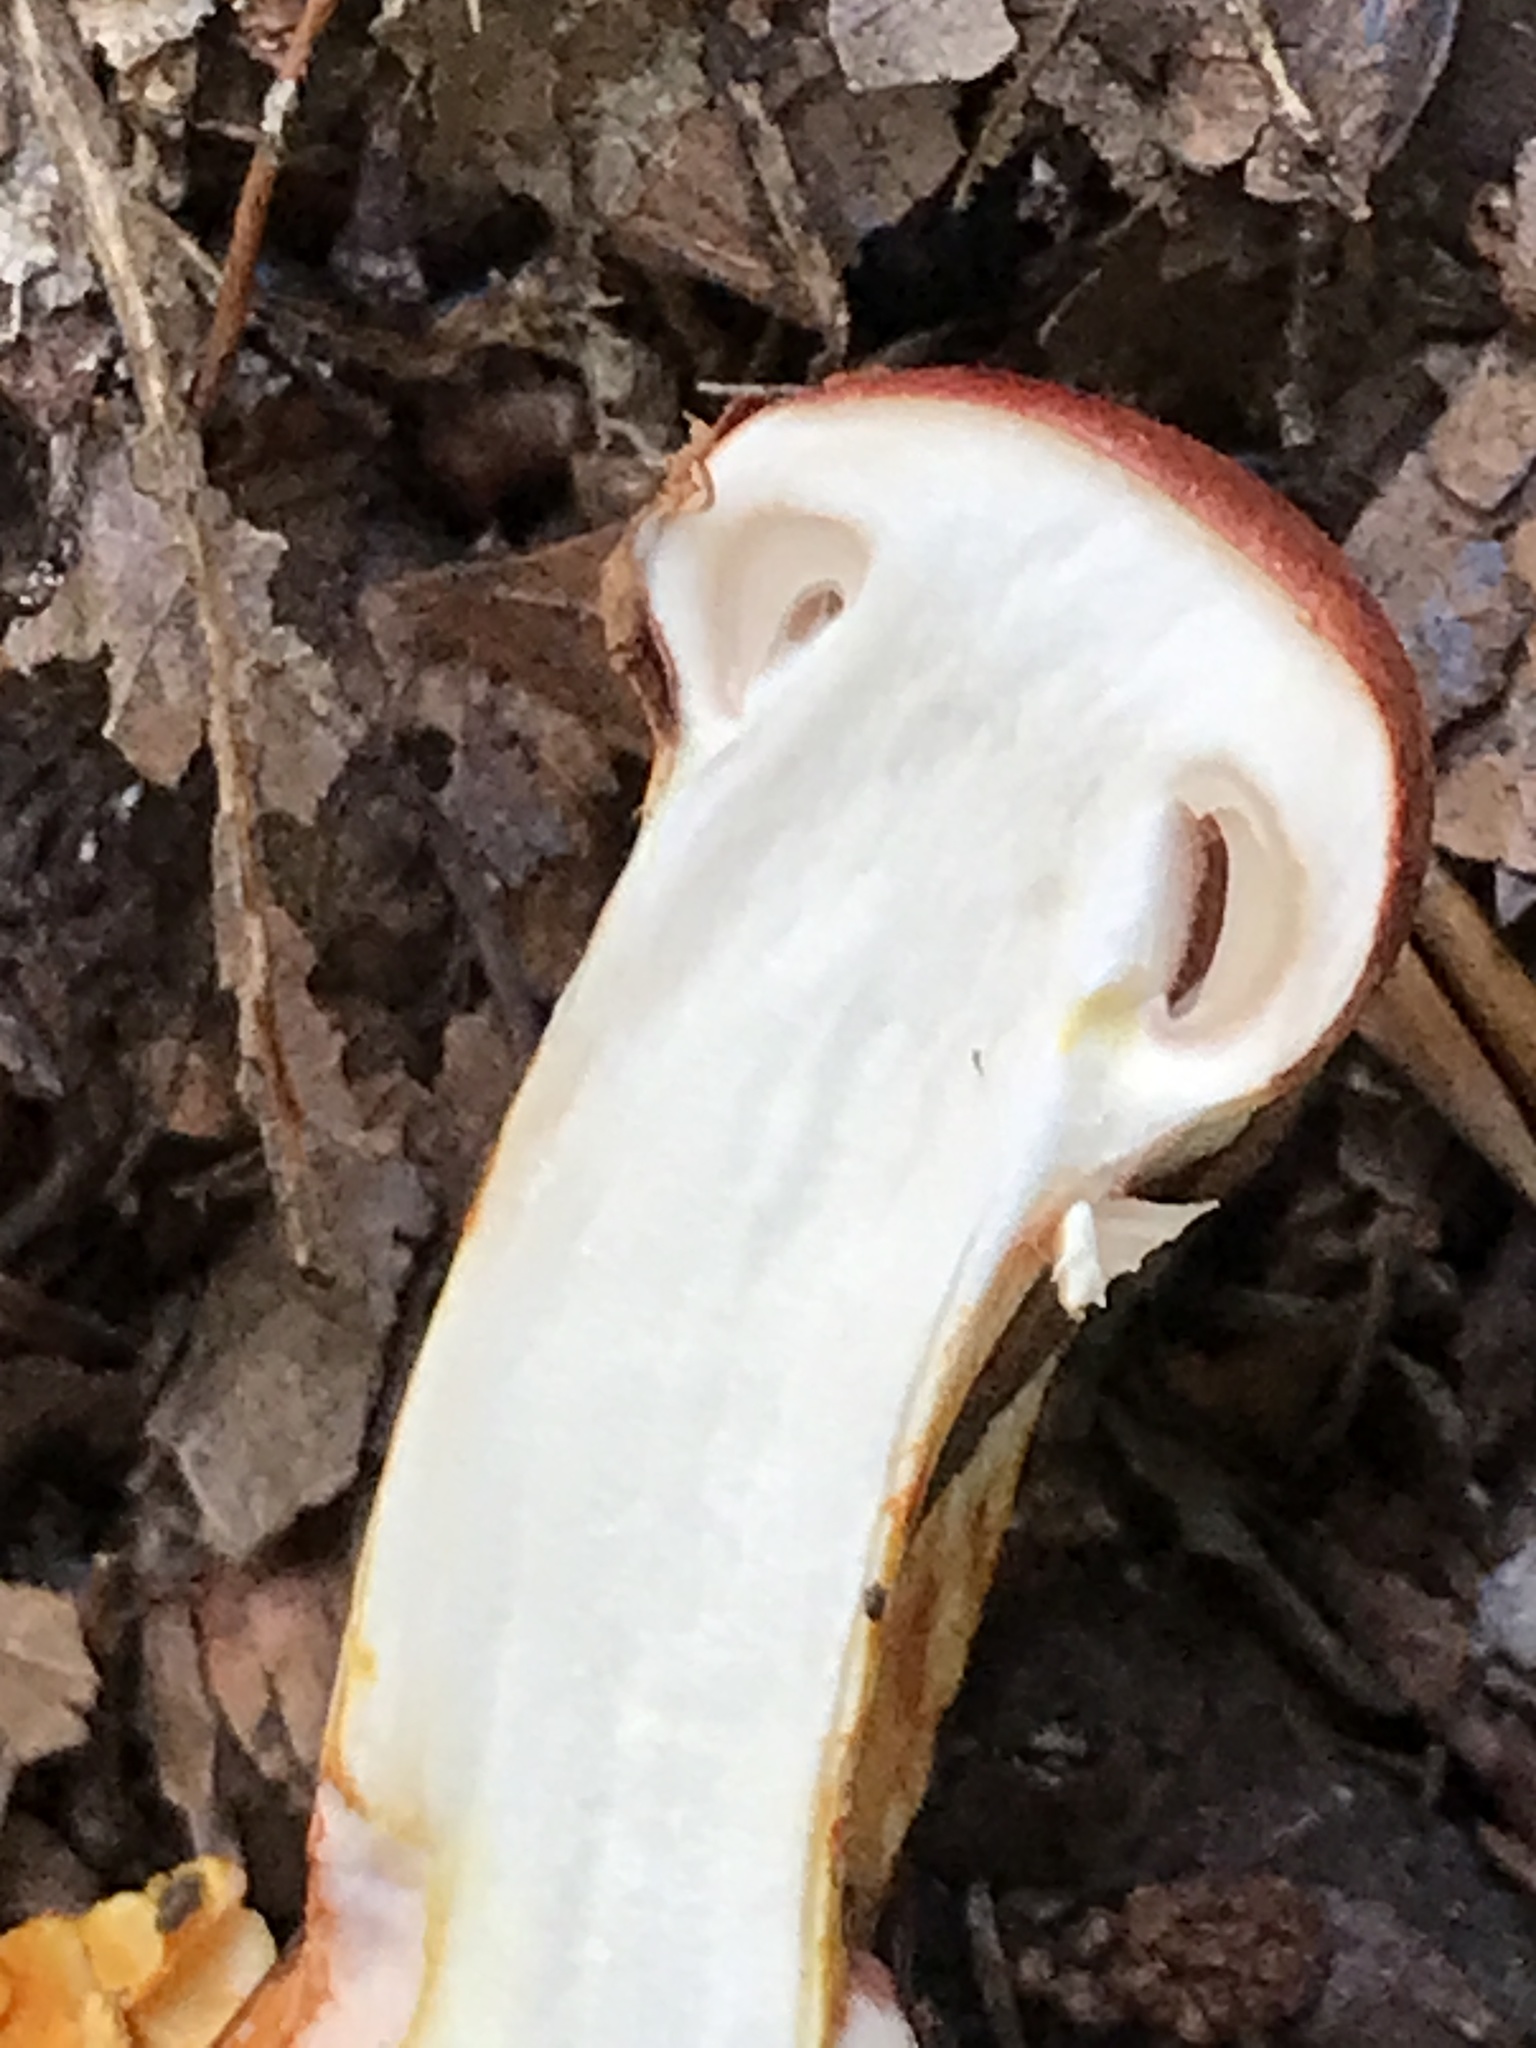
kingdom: Fungi
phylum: Basidiomycota
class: Agaricomycetes
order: Agaricales
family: Cortinariaceae
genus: Cortinarius
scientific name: Cortinarius bolaris
